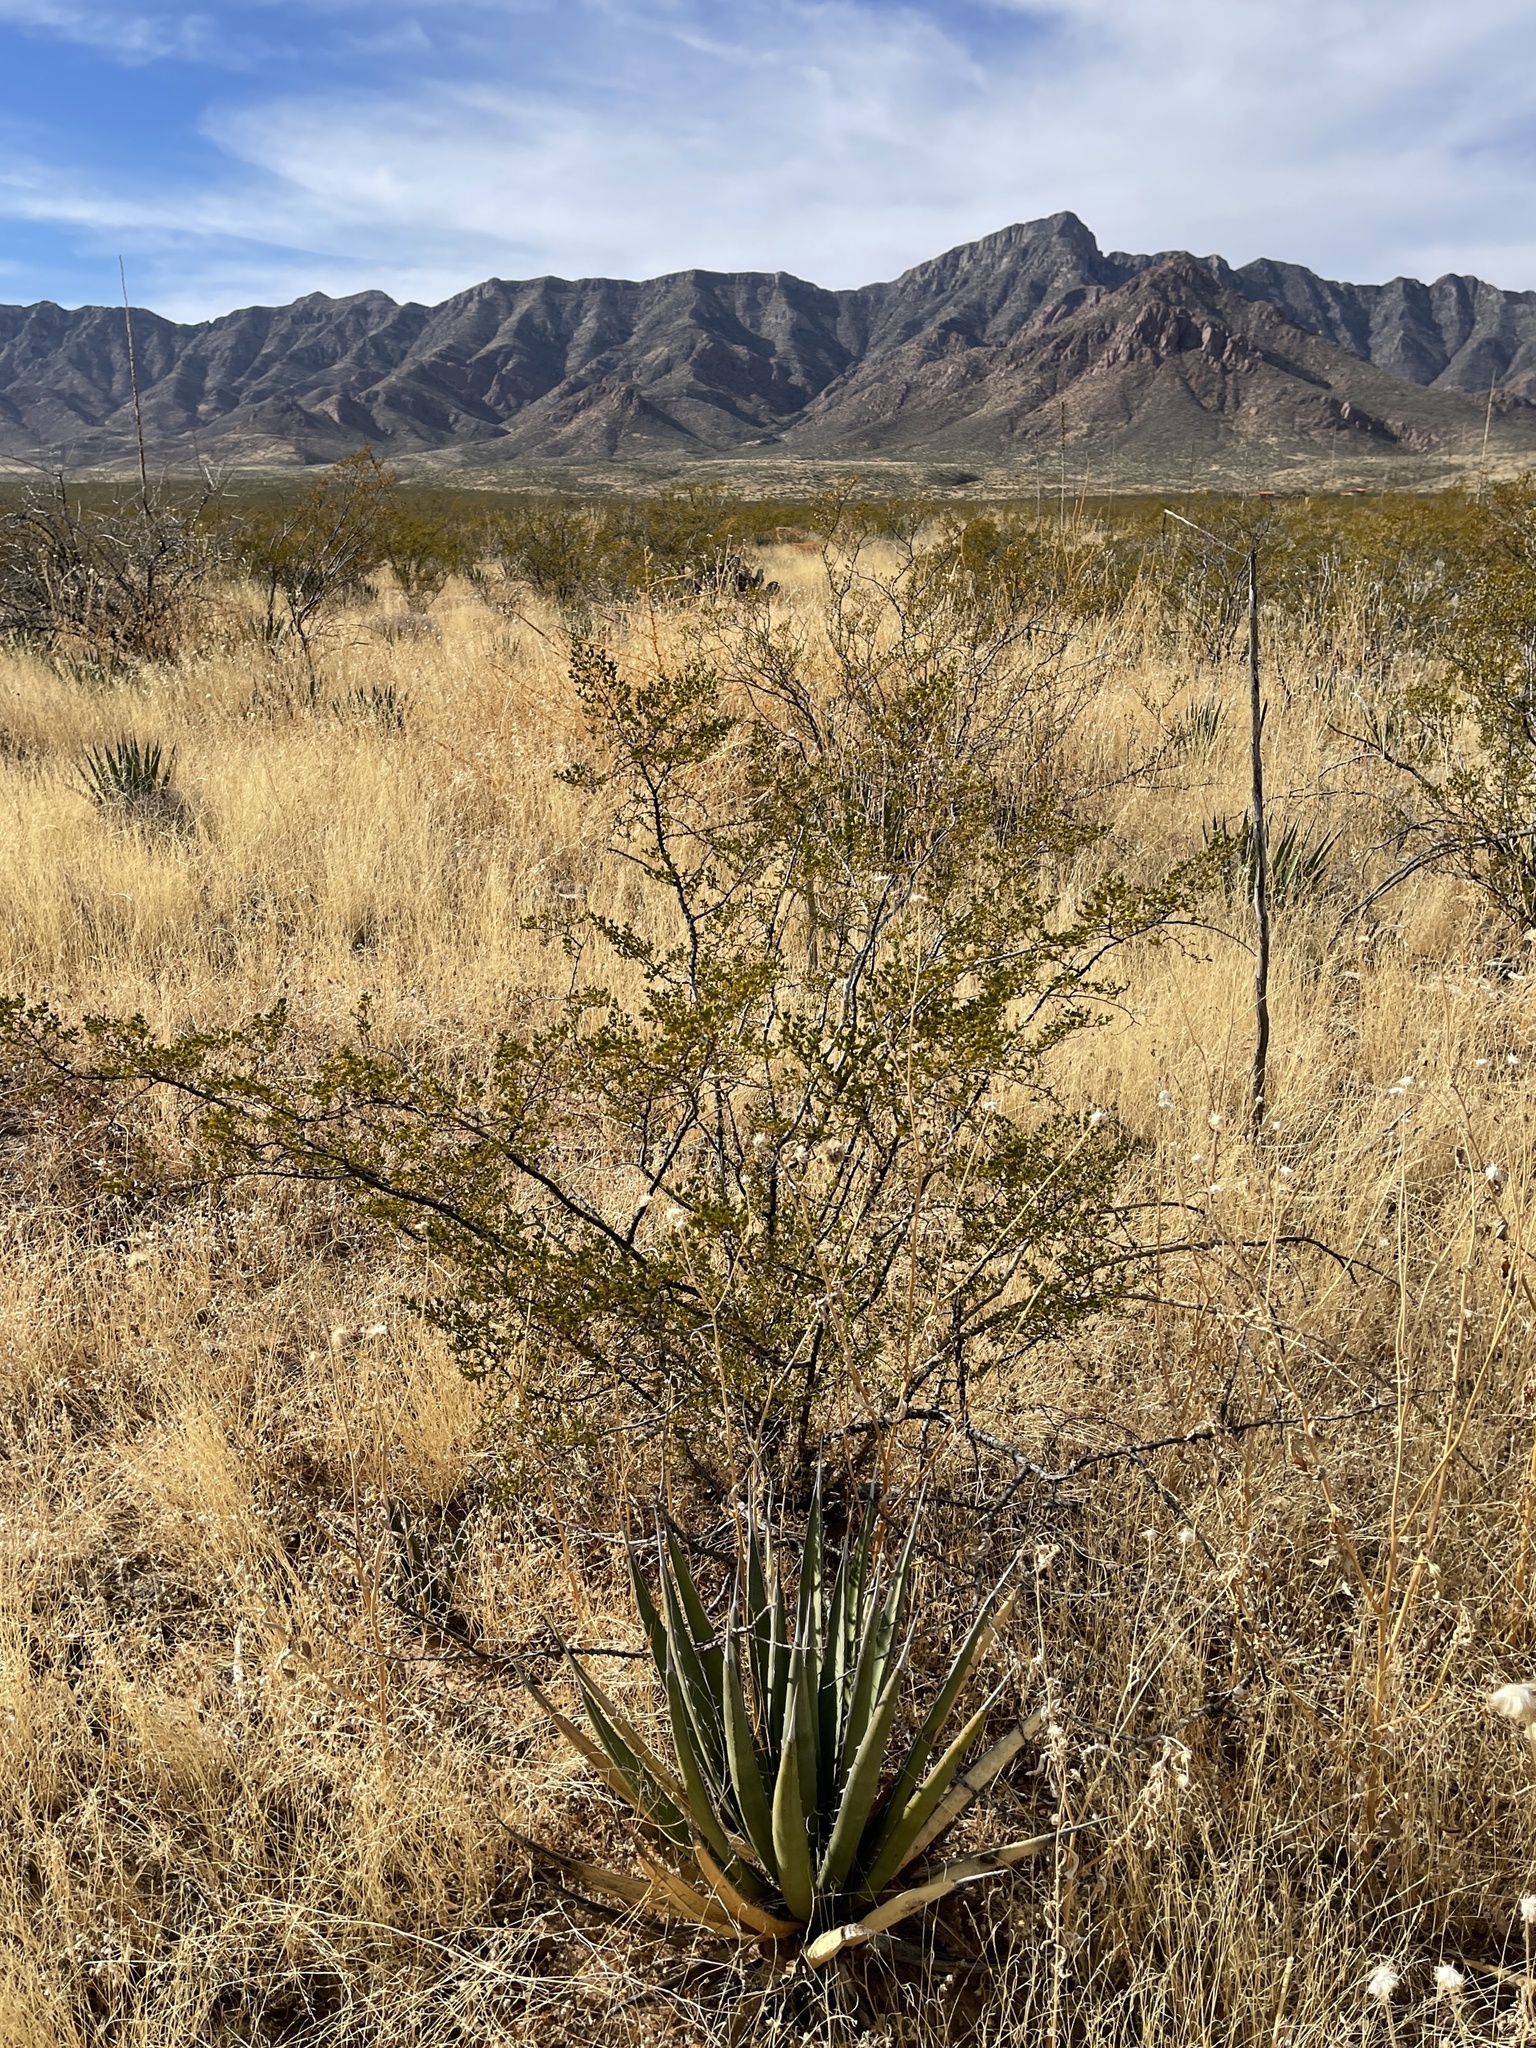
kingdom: Plantae
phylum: Tracheophyta
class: Magnoliopsida
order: Zygophyllales
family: Zygophyllaceae
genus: Larrea
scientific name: Larrea tridentata
